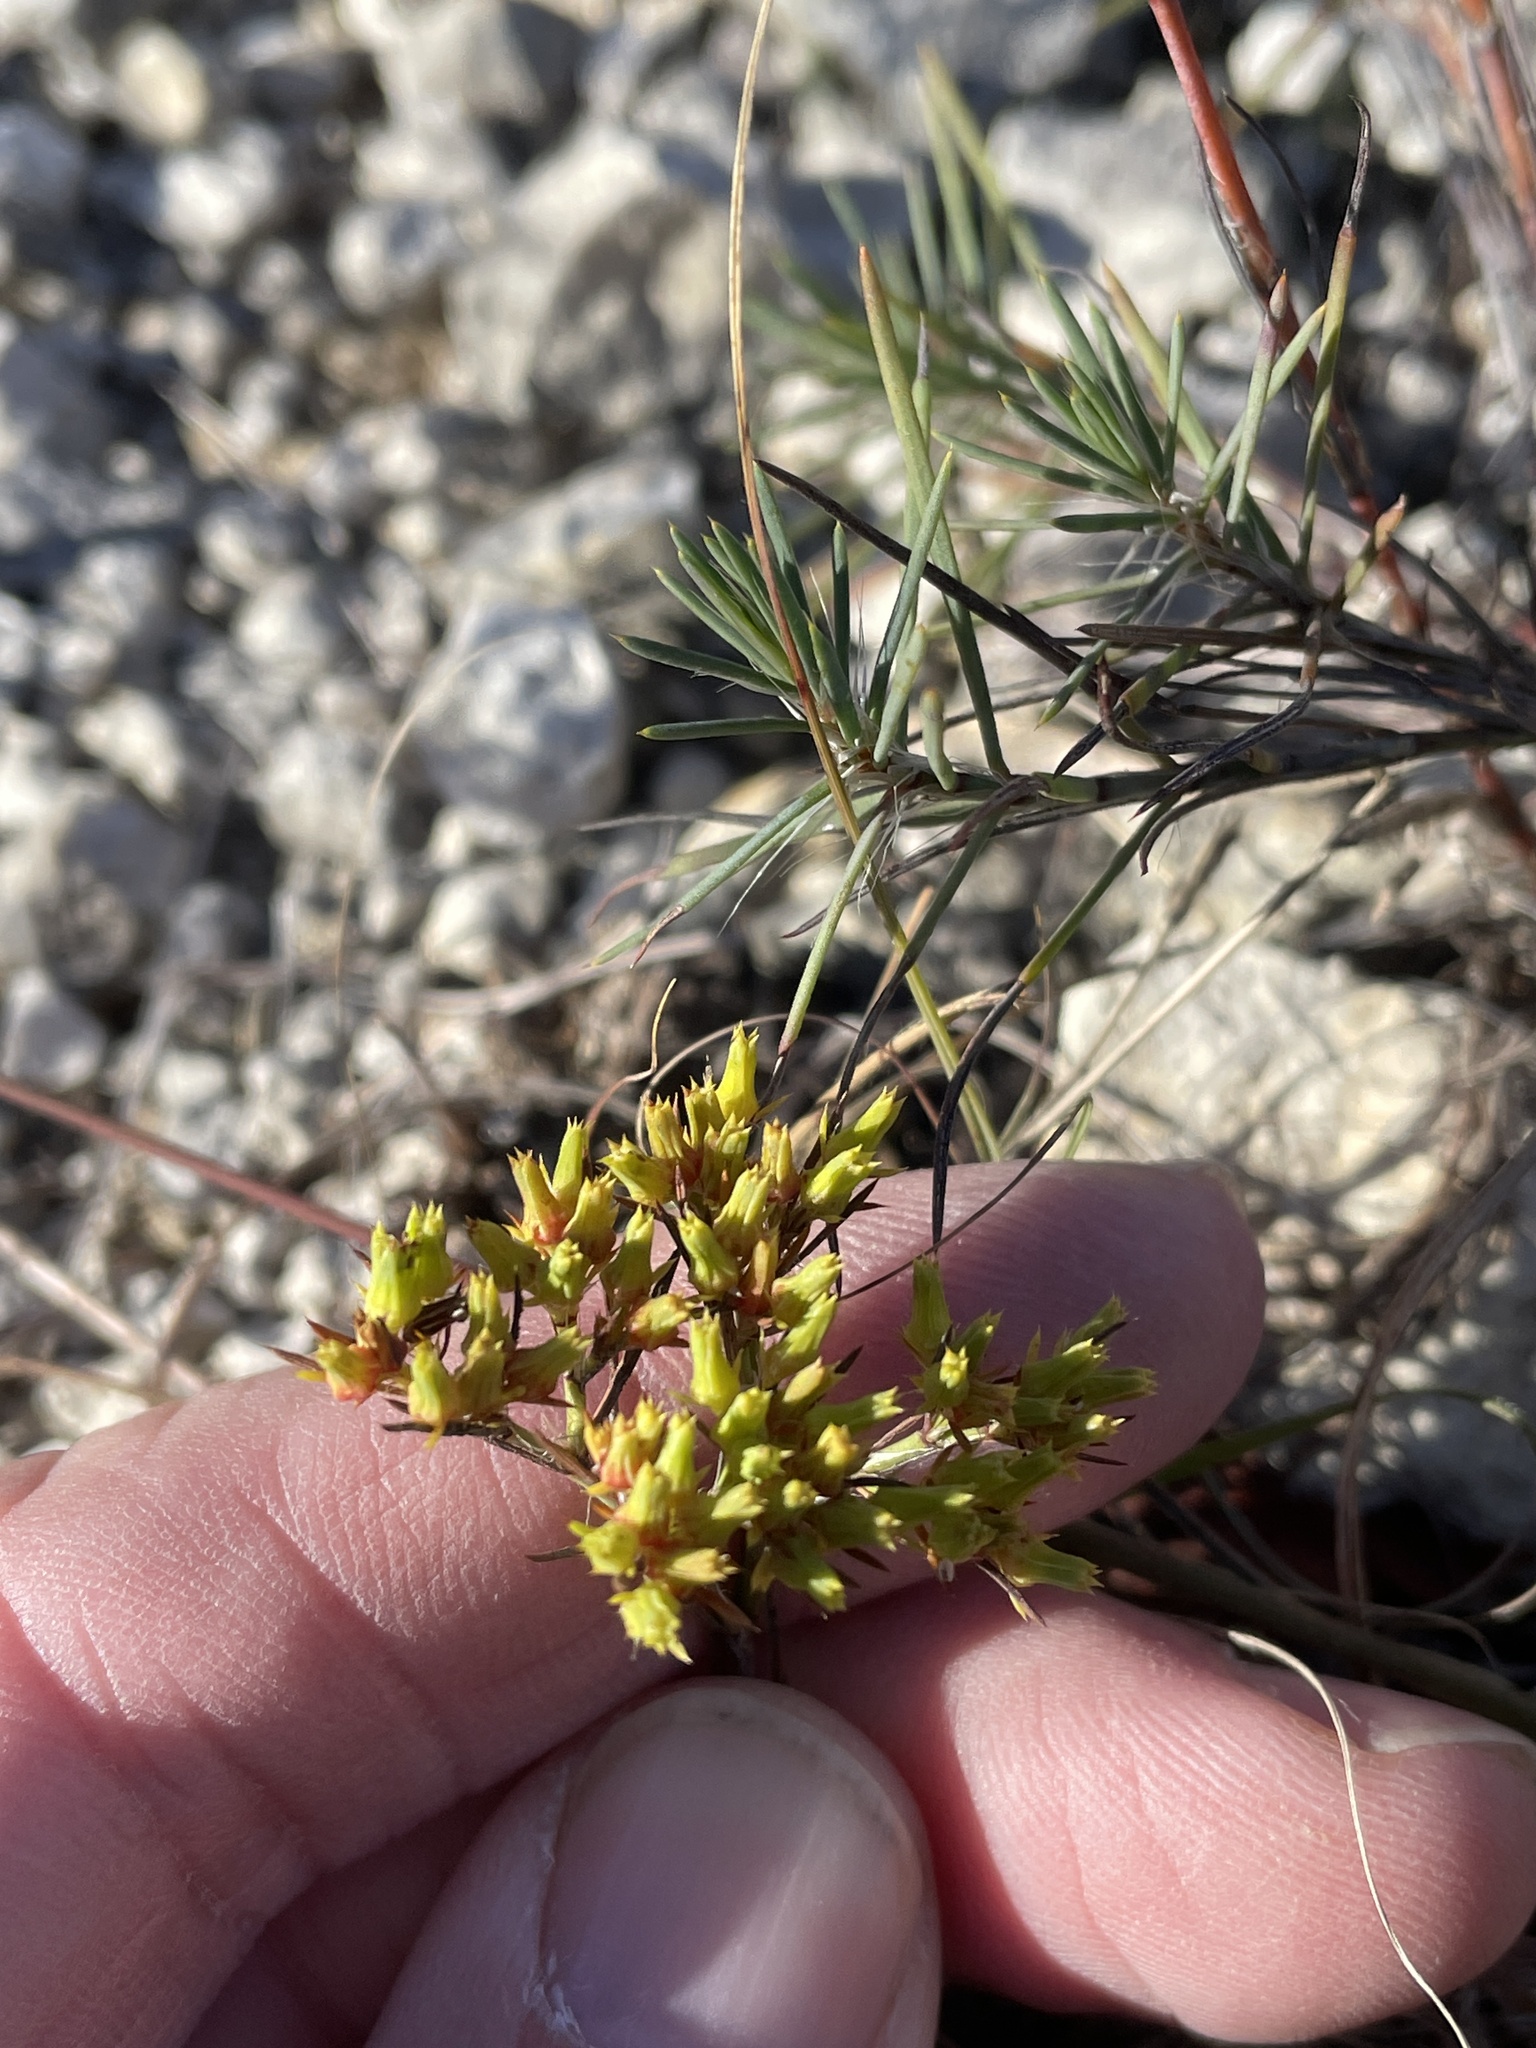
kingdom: Plantae
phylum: Tracheophyta
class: Magnoliopsida
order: Caryophyllales
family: Caryophyllaceae
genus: Paronychia
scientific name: Paronychia virginica
